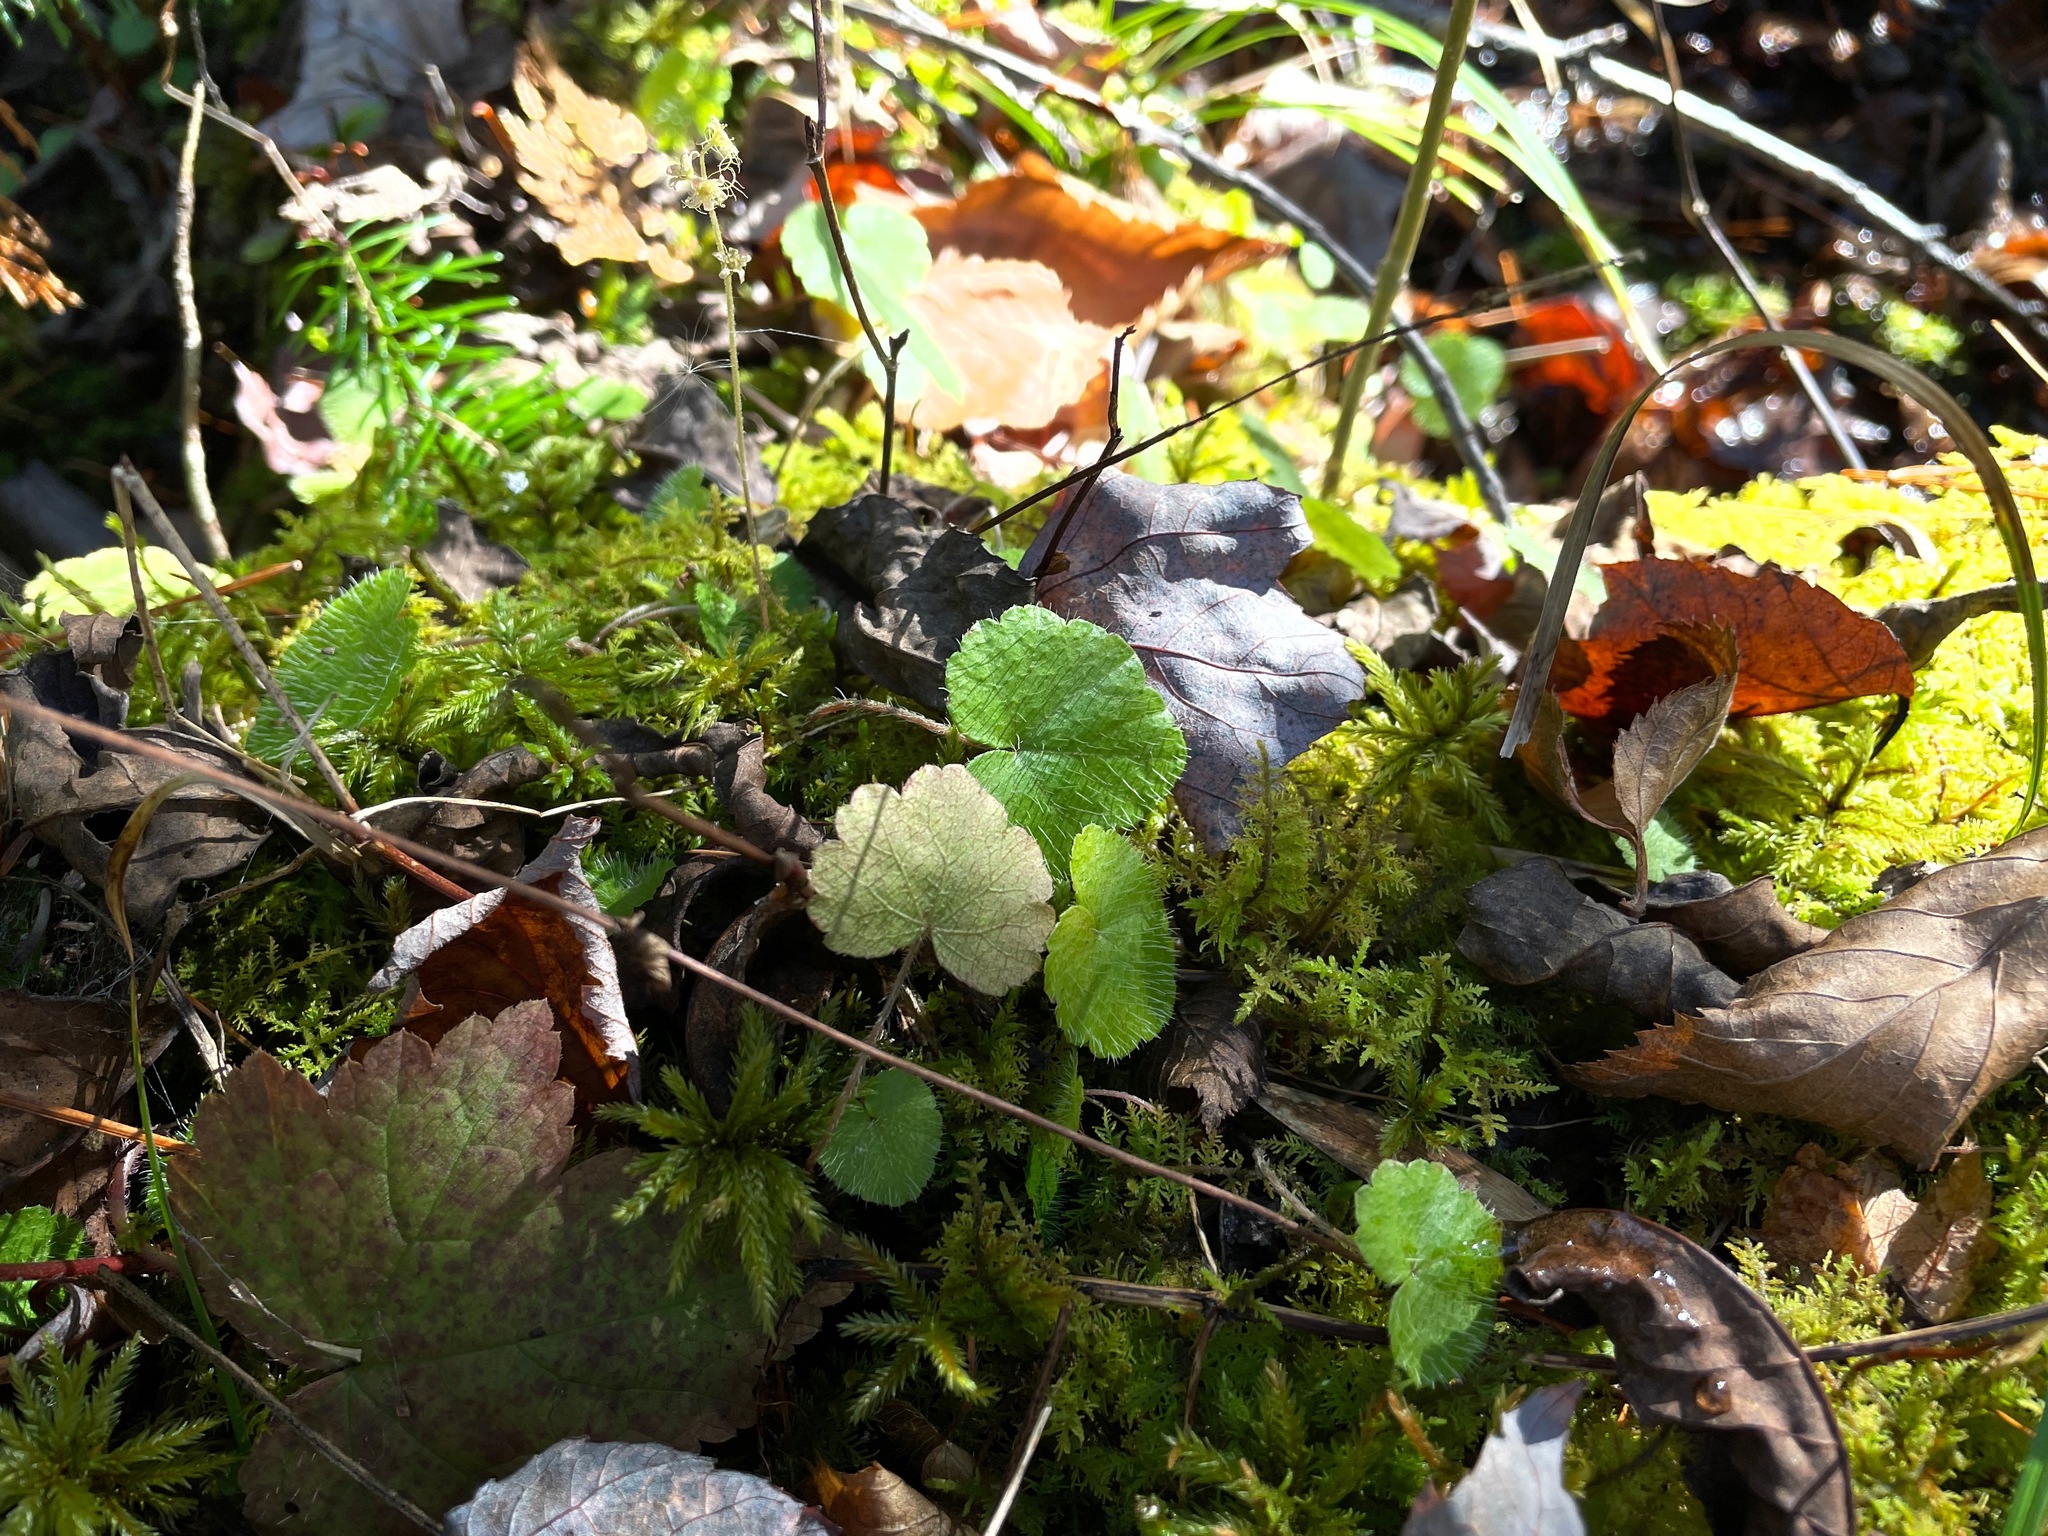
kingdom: Plantae
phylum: Tracheophyta
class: Magnoliopsida
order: Saxifragales
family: Saxifragaceae
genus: Mitella
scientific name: Mitella nuda
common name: Bare-stemmed bishop's-cap
